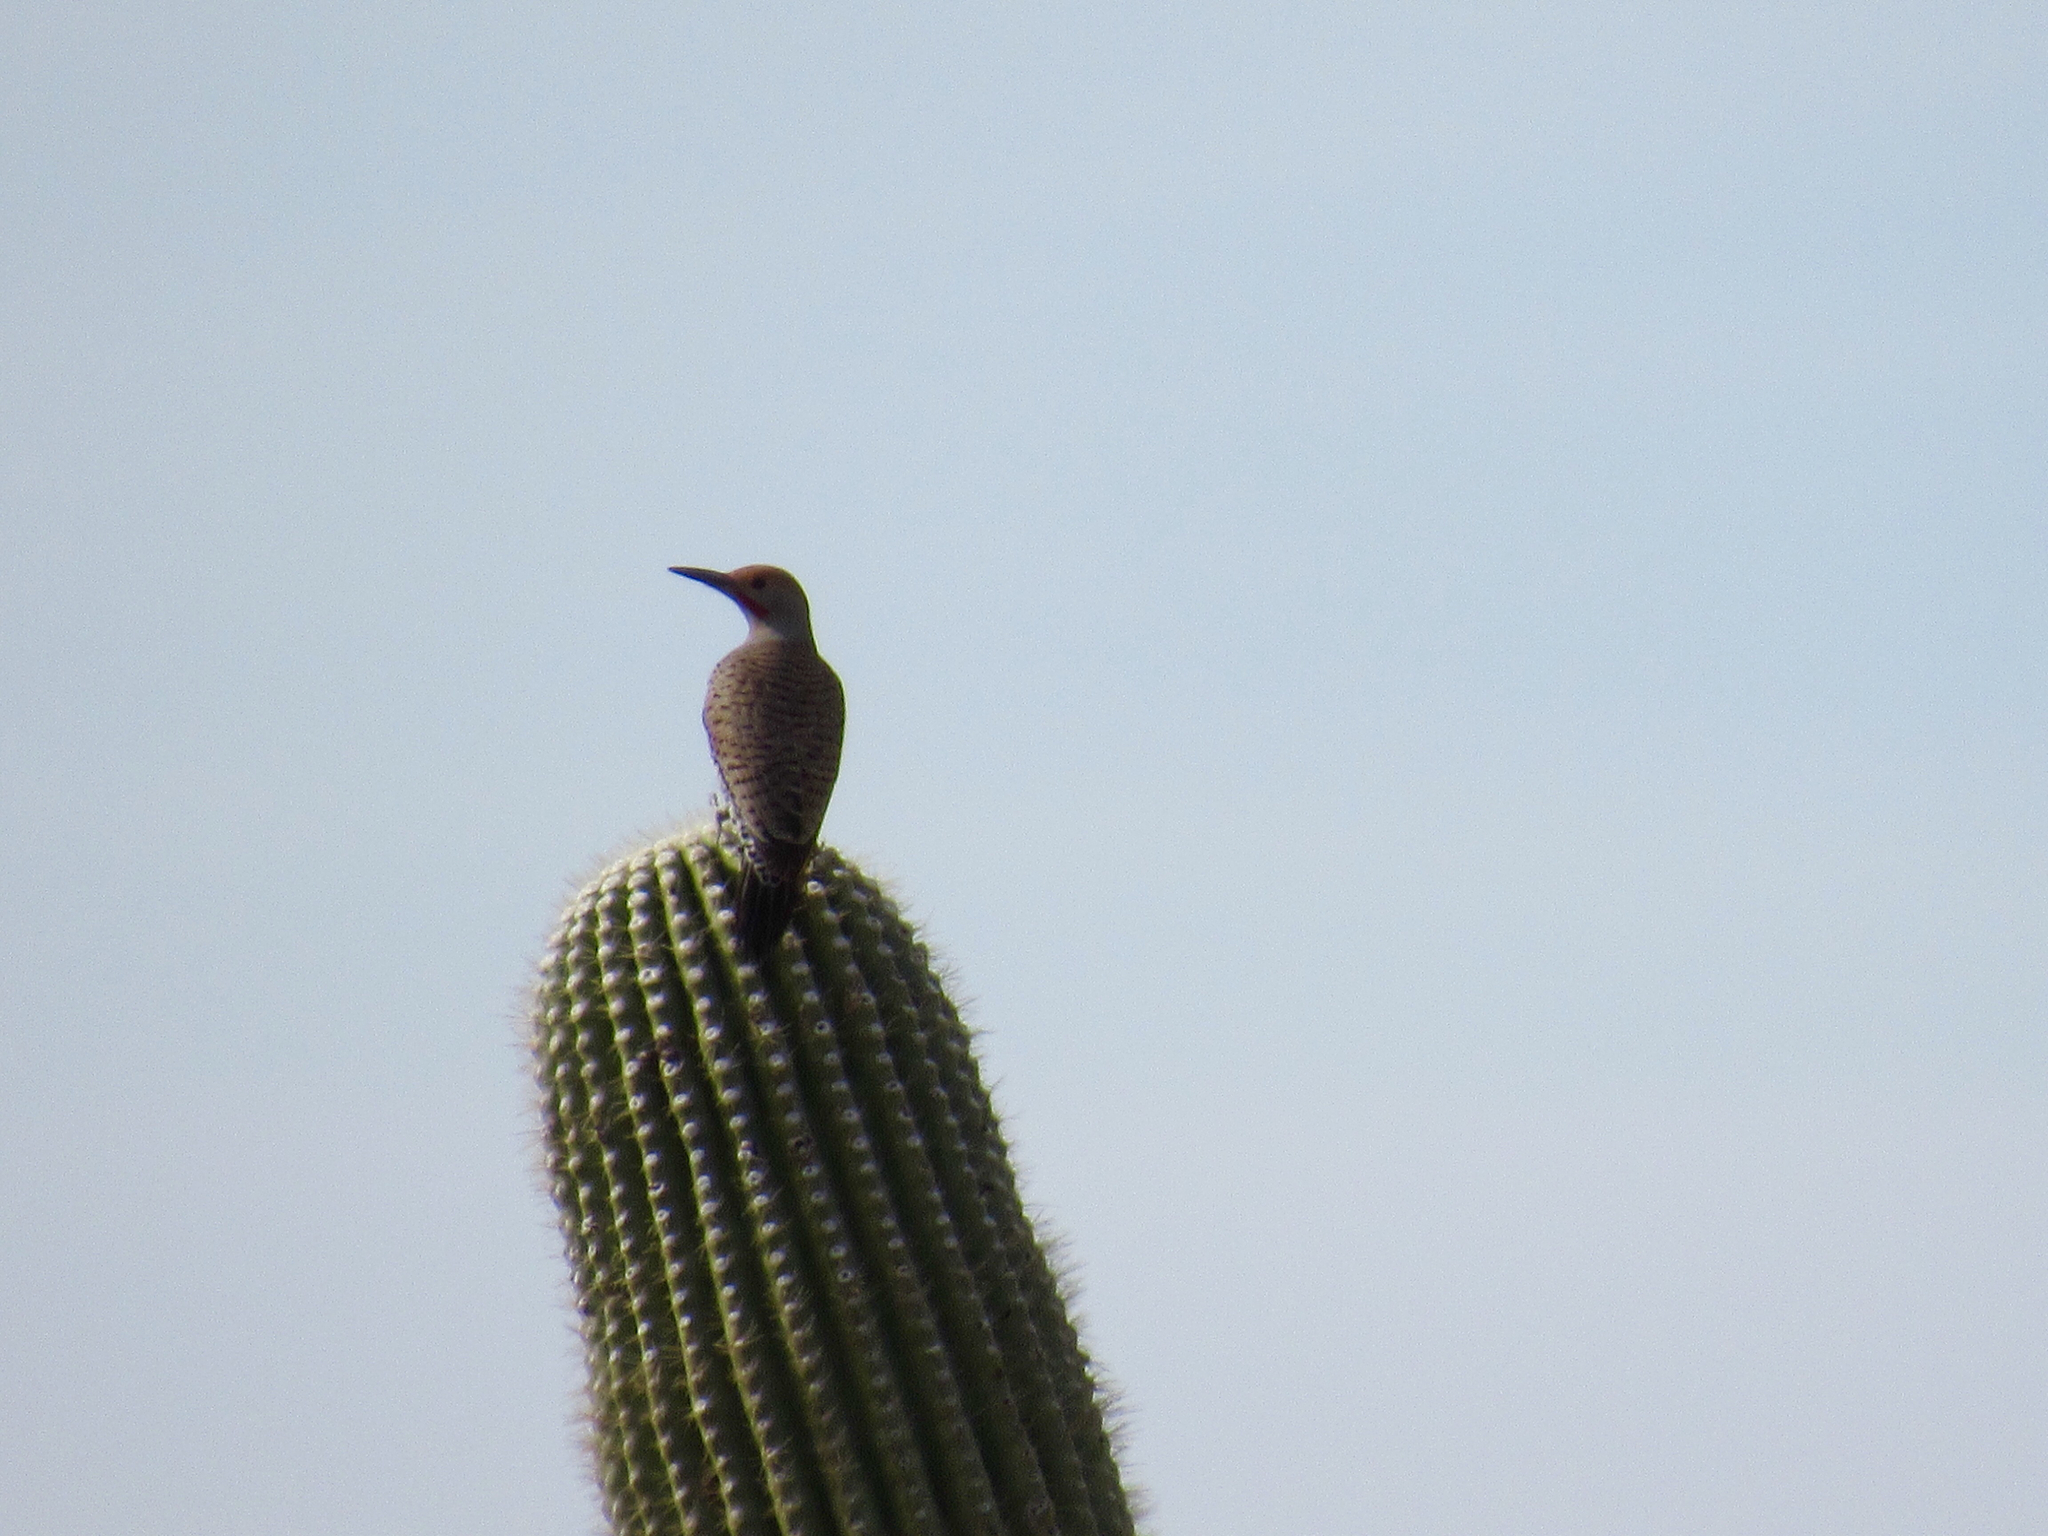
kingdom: Animalia
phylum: Chordata
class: Aves
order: Piciformes
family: Picidae
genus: Colaptes
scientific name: Colaptes chrysoides
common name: Gilded flicker
